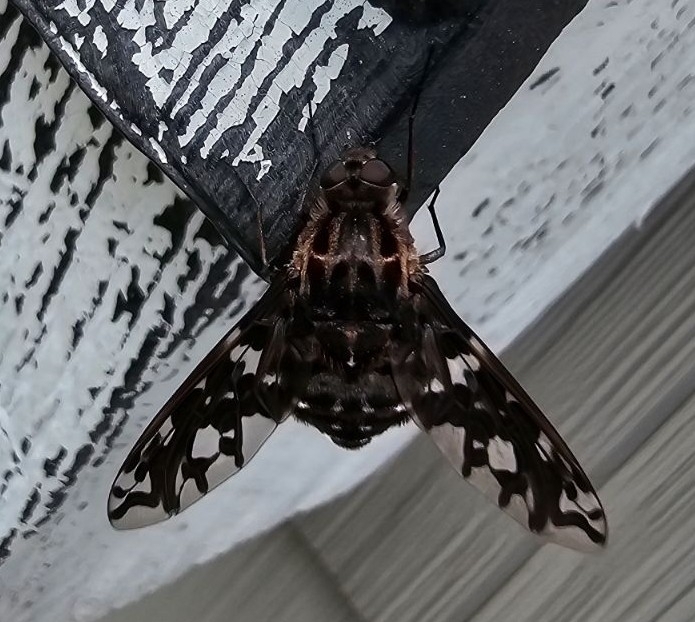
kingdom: Animalia
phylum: Arthropoda
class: Insecta
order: Diptera
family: Bombyliidae
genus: Xenox
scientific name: Xenox tigrinus
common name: Tiger bee fly
